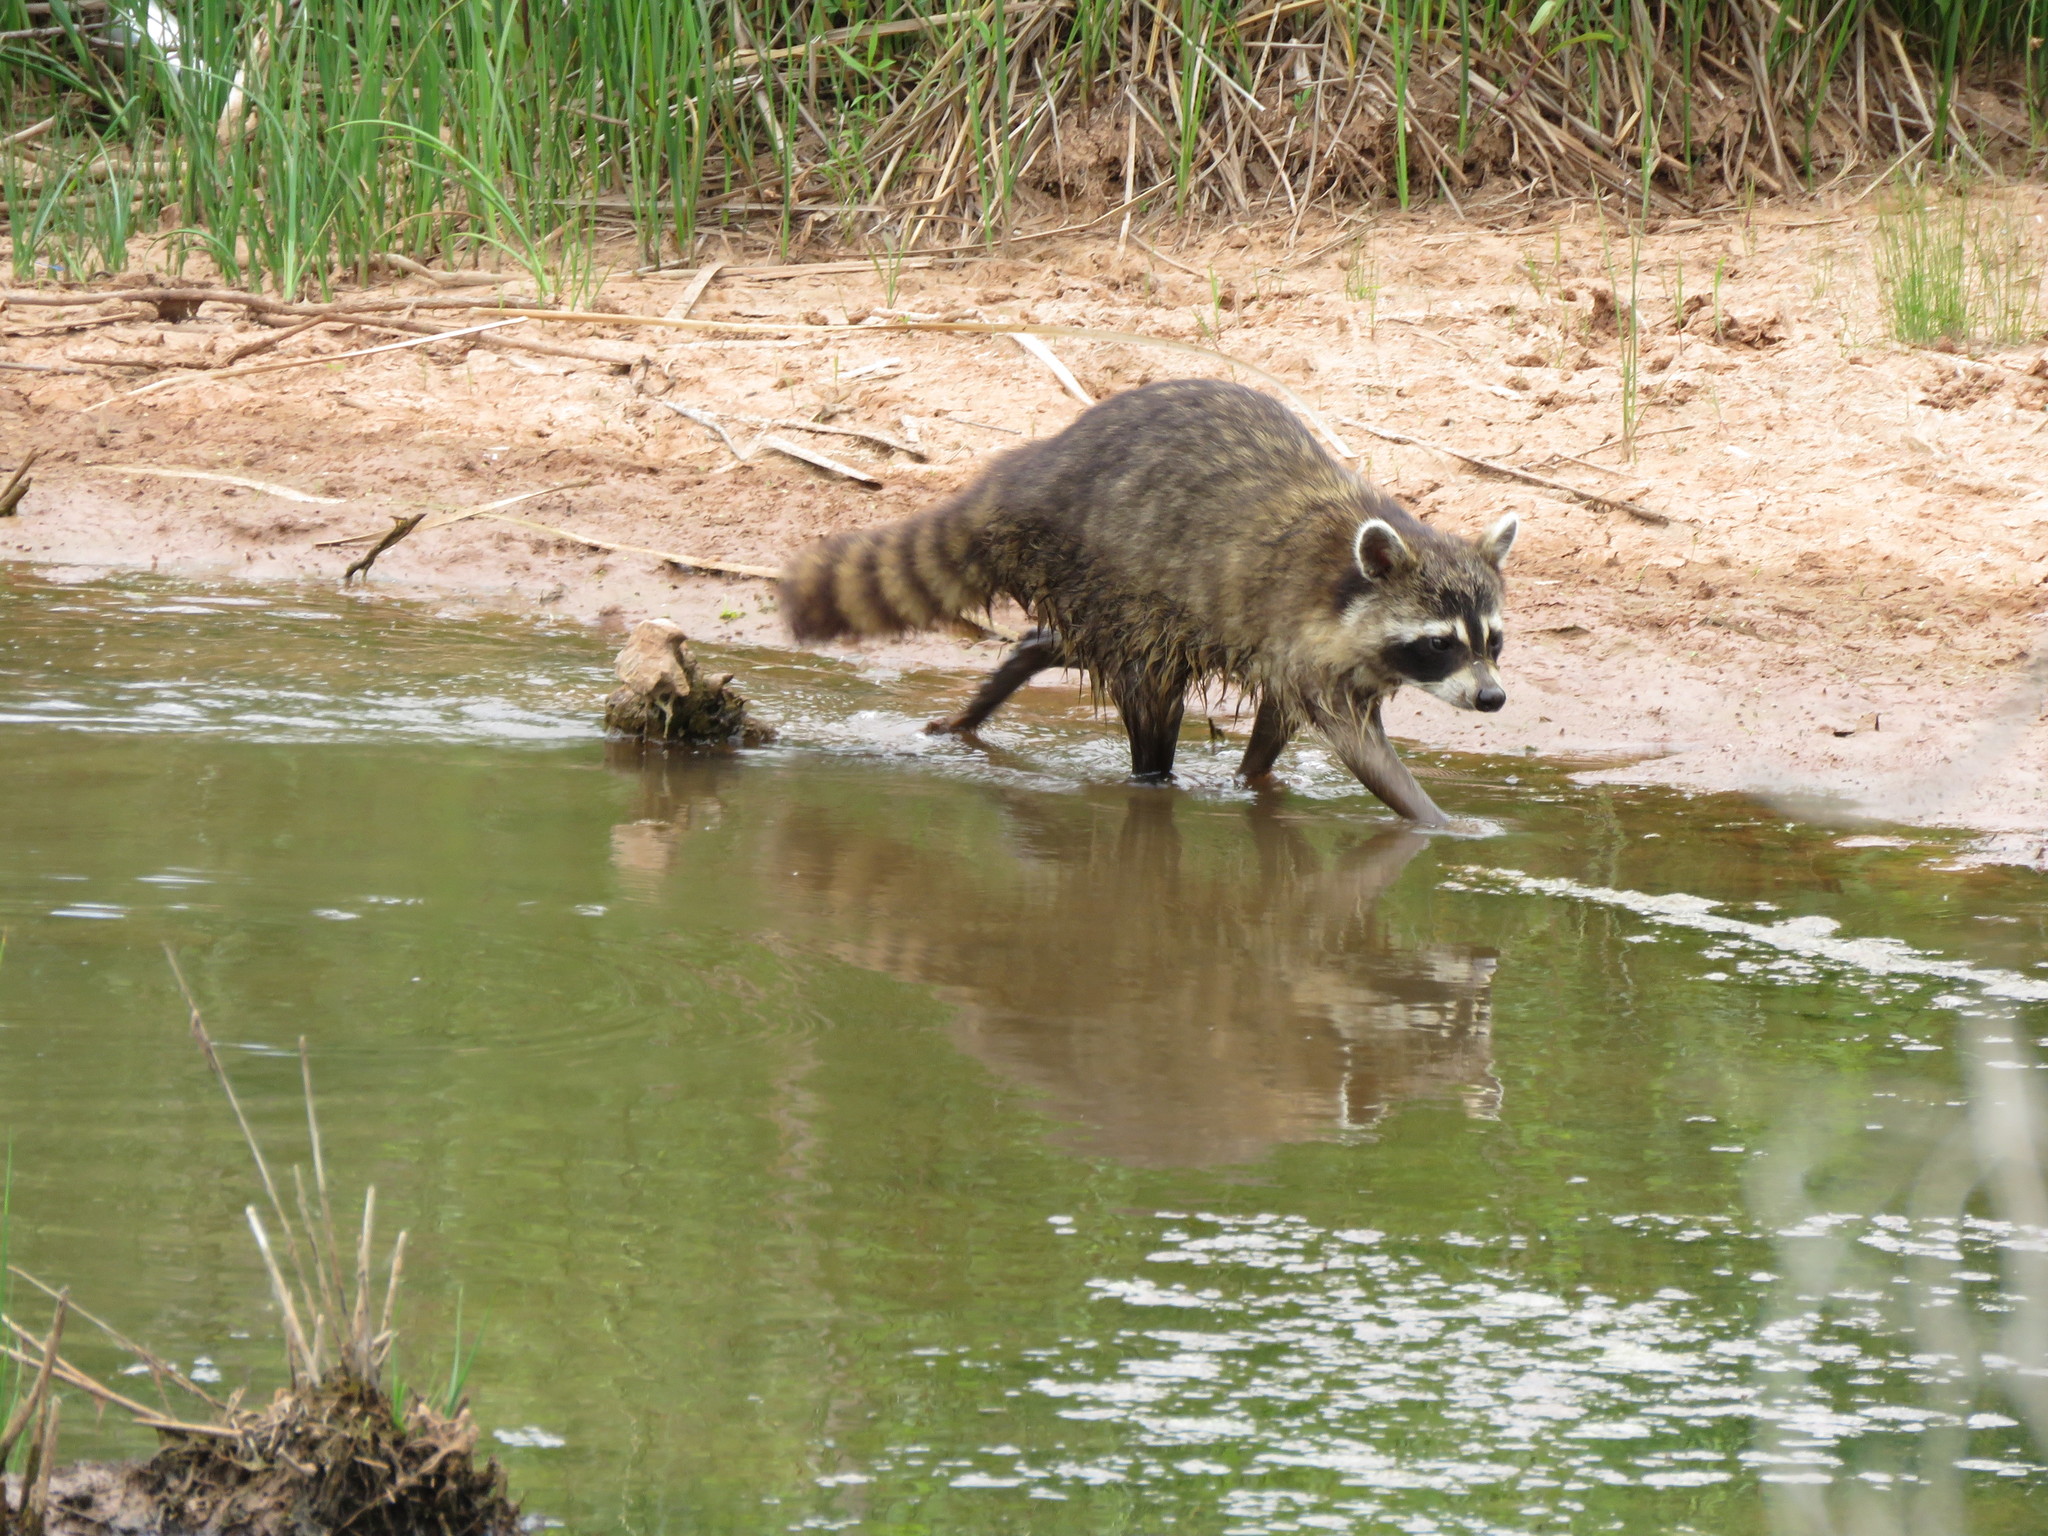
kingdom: Animalia
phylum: Chordata
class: Mammalia
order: Carnivora
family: Procyonidae
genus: Procyon
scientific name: Procyon lotor
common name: Raccoon
